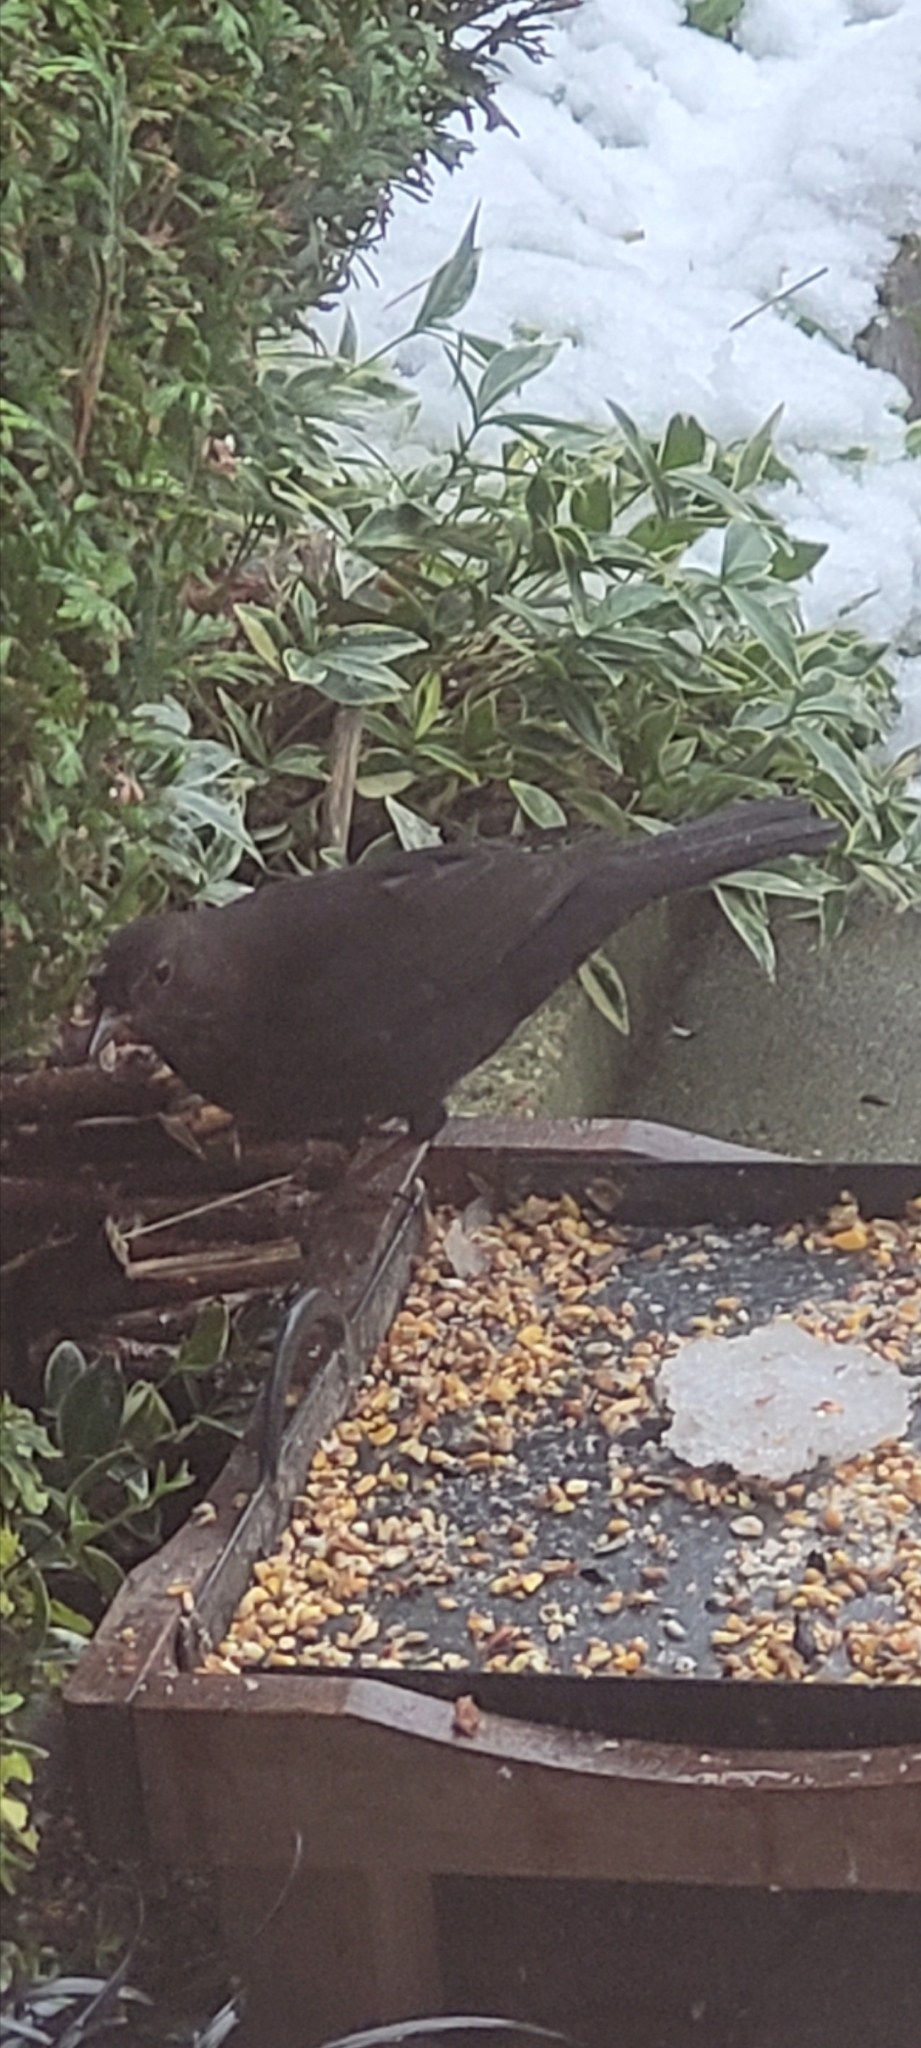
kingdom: Animalia
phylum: Chordata
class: Aves
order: Passeriformes
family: Turdidae
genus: Turdus
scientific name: Turdus merula
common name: Common blackbird
